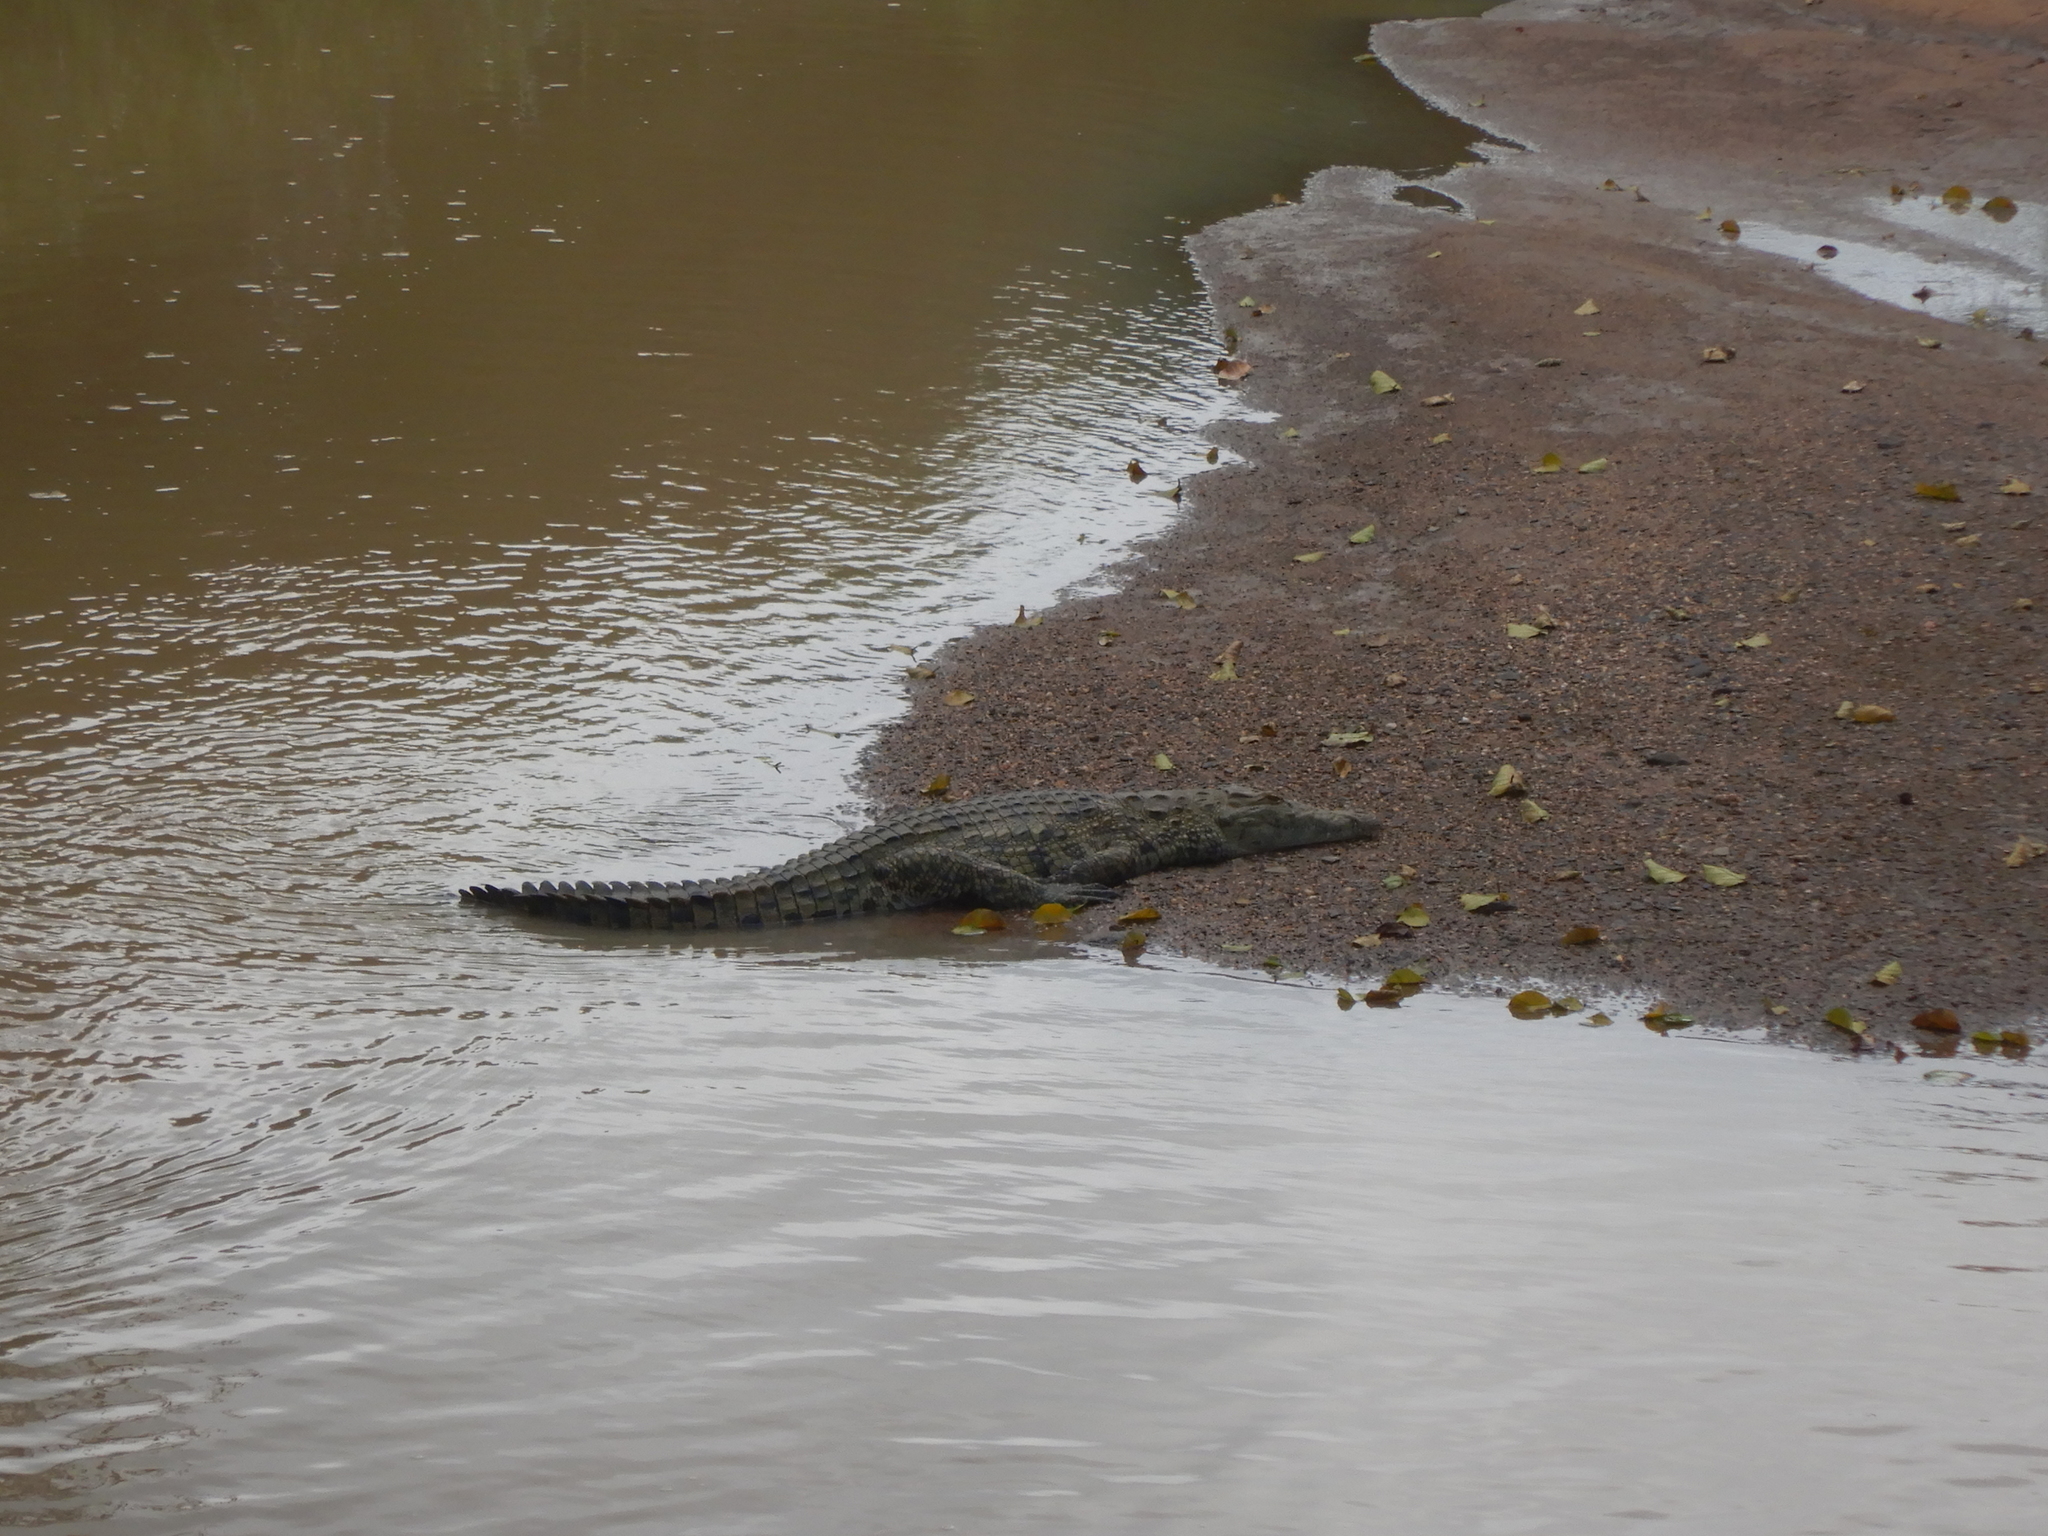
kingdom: Animalia
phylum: Chordata
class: Crocodylia
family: Crocodylidae
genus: Crocodylus
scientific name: Crocodylus niloticus
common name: Nile crocodile
